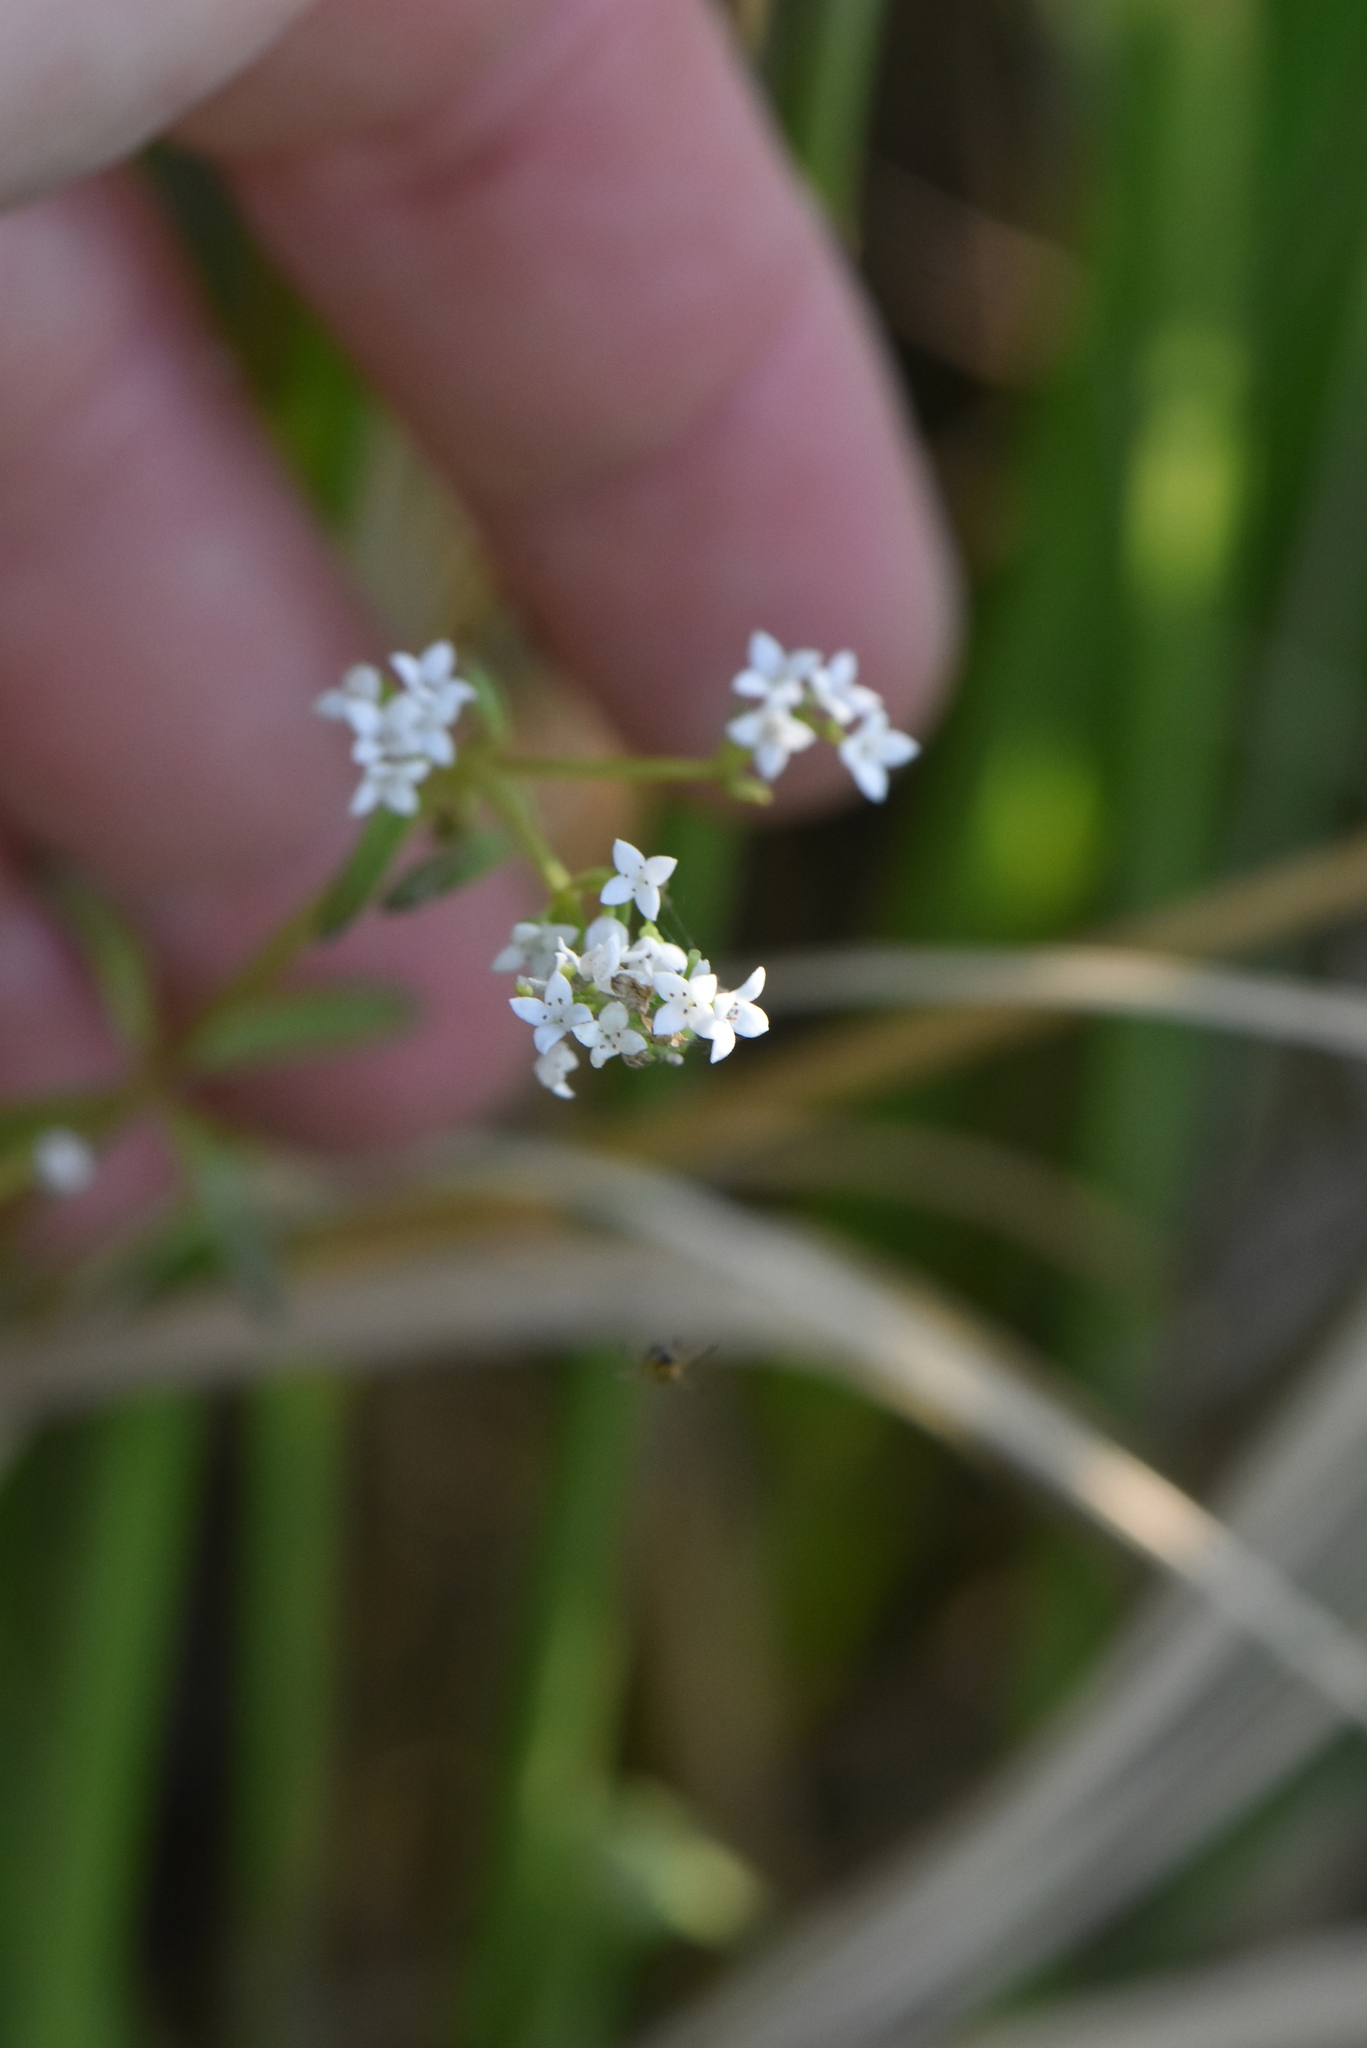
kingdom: Plantae
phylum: Tracheophyta
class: Magnoliopsida
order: Gentianales
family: Rubiaceae
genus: Galium
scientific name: Galium palustre
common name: Common marsh-bedstraw
